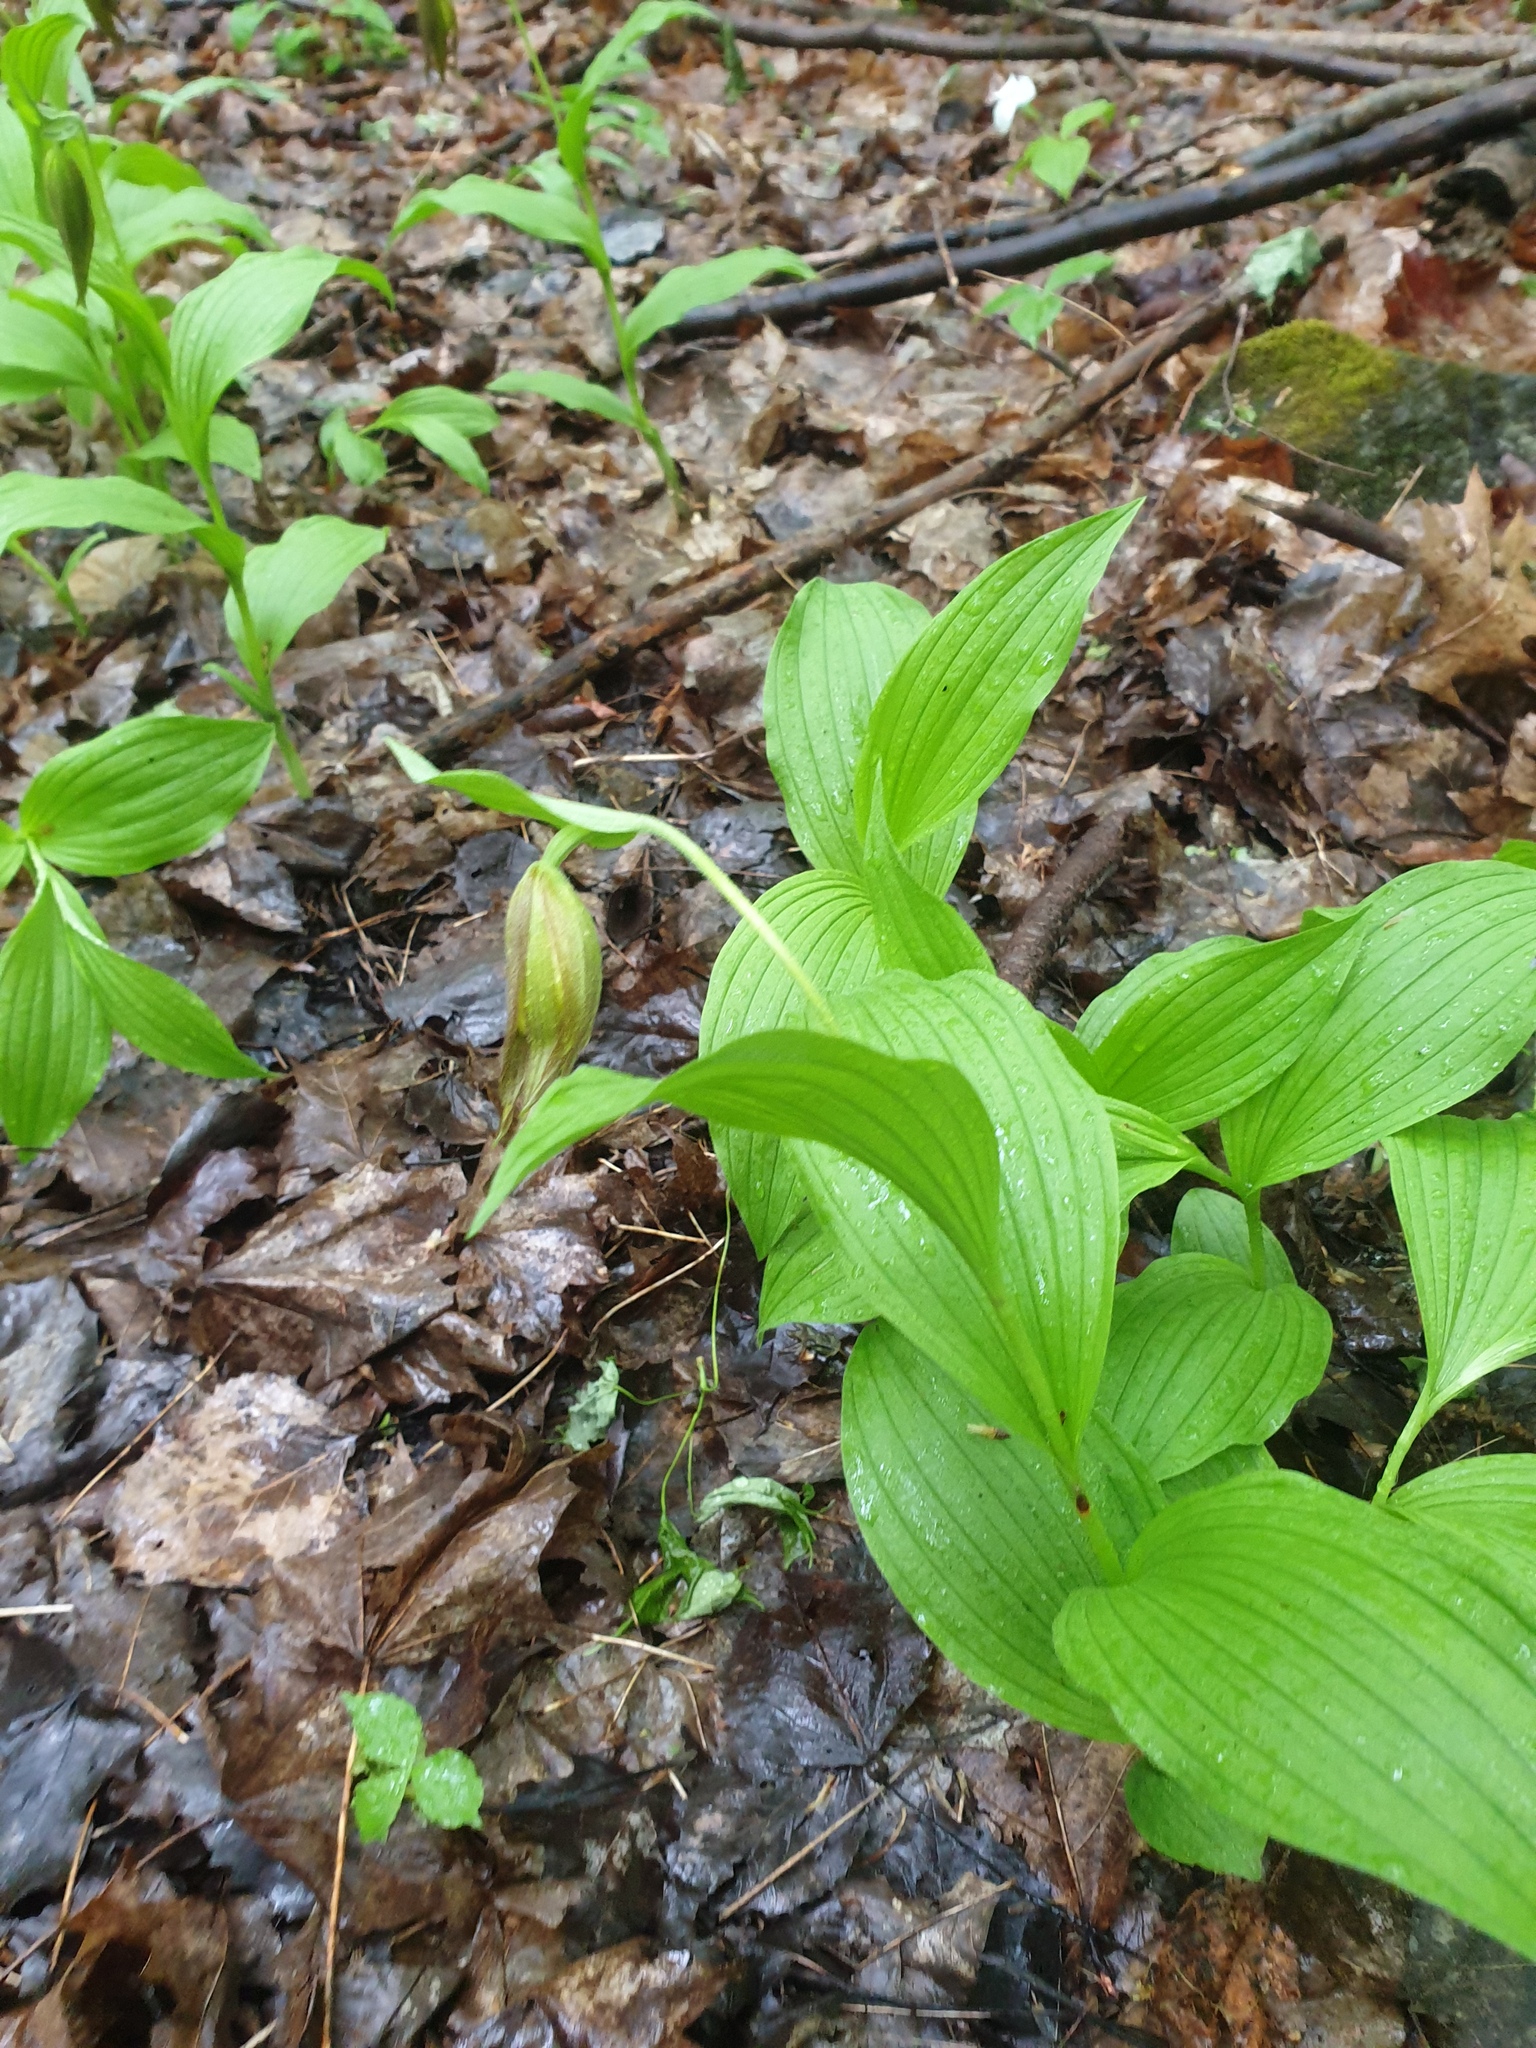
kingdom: Plantae
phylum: Tracheophyta
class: Liliopsida
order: Asparagales
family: Orchidaceae
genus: Cypripedium
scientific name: Cypripedium parviflorum
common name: American yellow lady's-slipper
